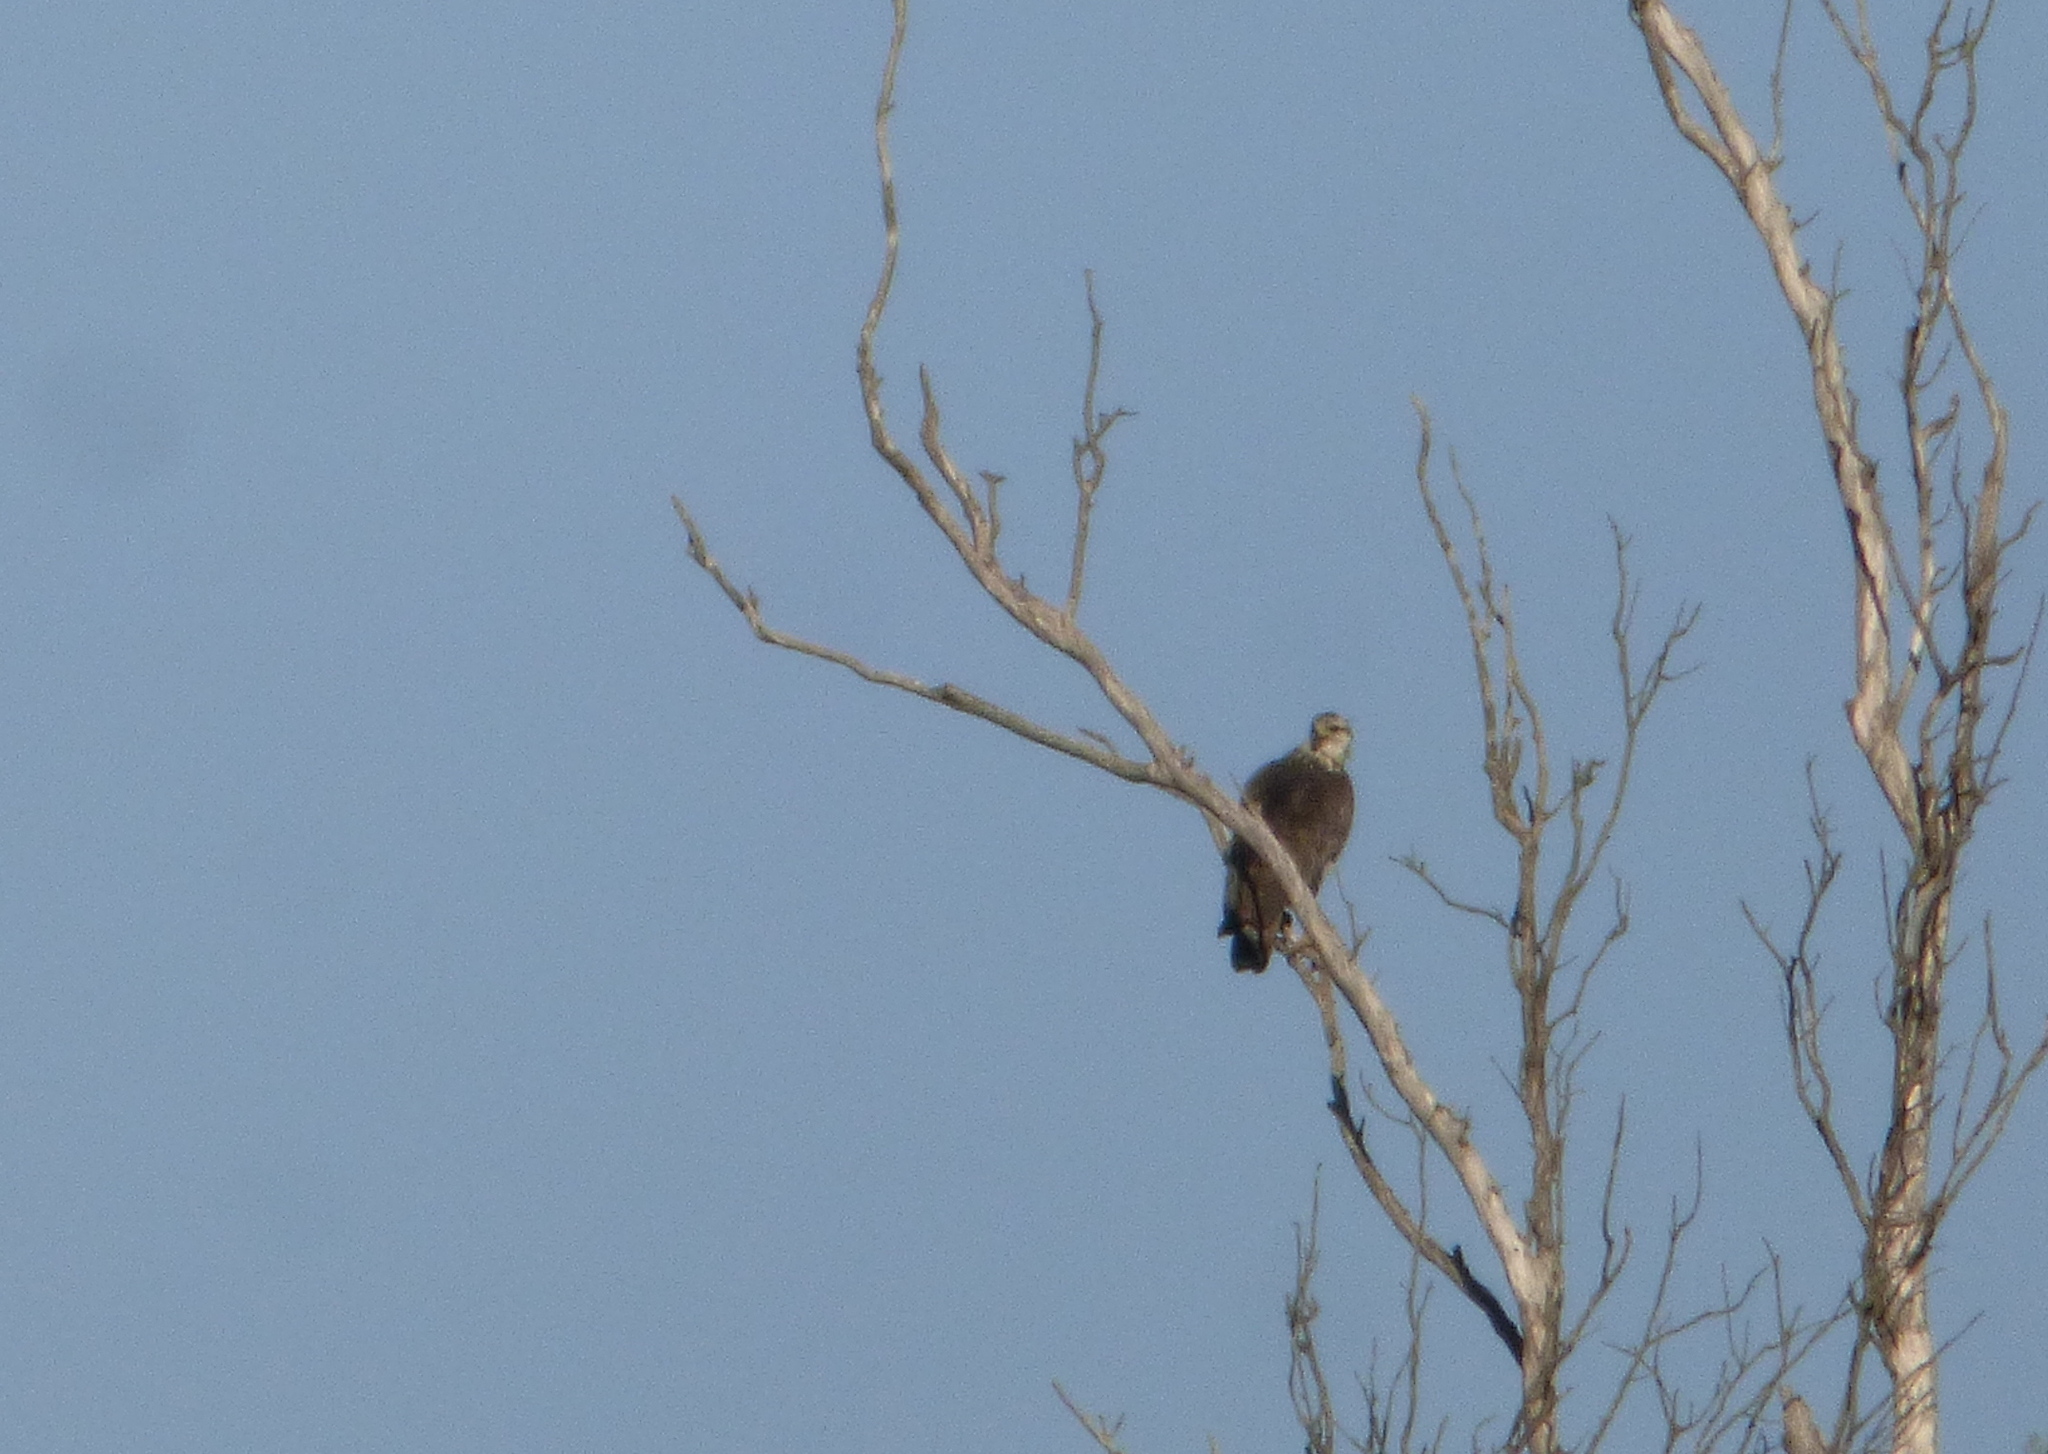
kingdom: Animalia
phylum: Chordata
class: Aves
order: Accipitriformes
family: Accipitridae
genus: Harpyhaliaetus
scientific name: Harpyhaliaetus coronatus
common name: Crowned solitary eagle
